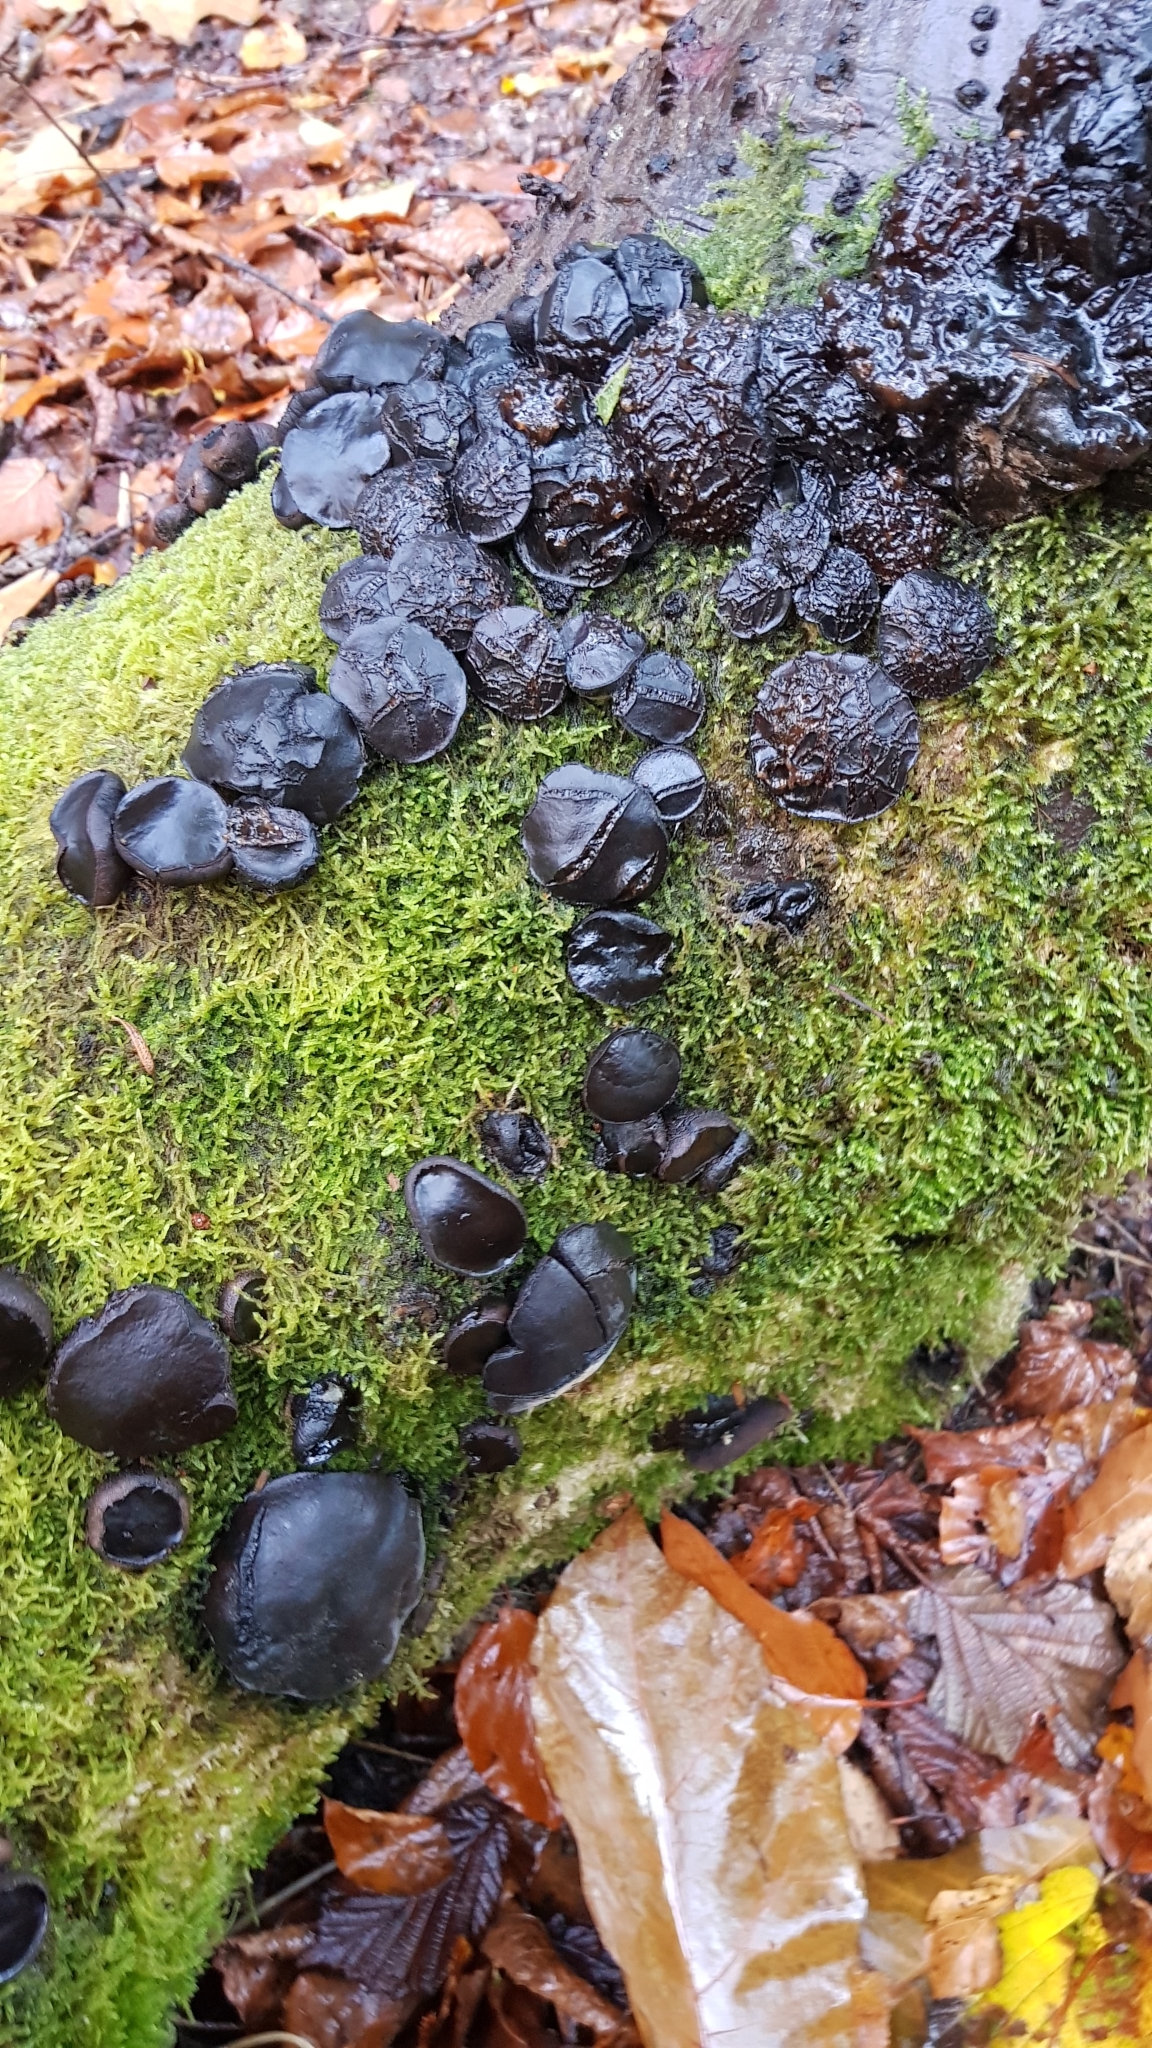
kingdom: Fungi
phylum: Ascomycota
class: Leotiomycetes
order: Phacidiales
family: Phacidiaceae
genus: Bulgaria
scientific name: Bulgaria inquinans
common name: Black bulgar
